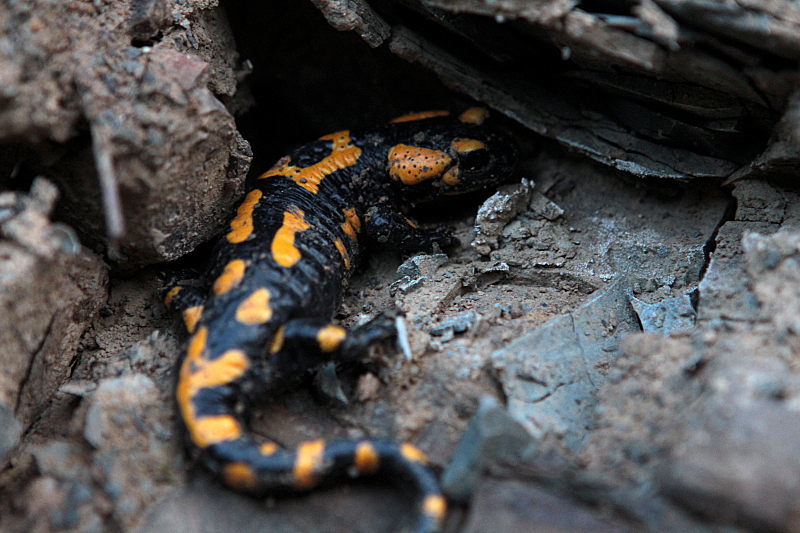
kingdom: Animalia
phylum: Chordata
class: Amphibia
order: Caudata
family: Salamandridae
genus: Salamandra
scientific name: Salamandra salamandra
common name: Fire salamander
